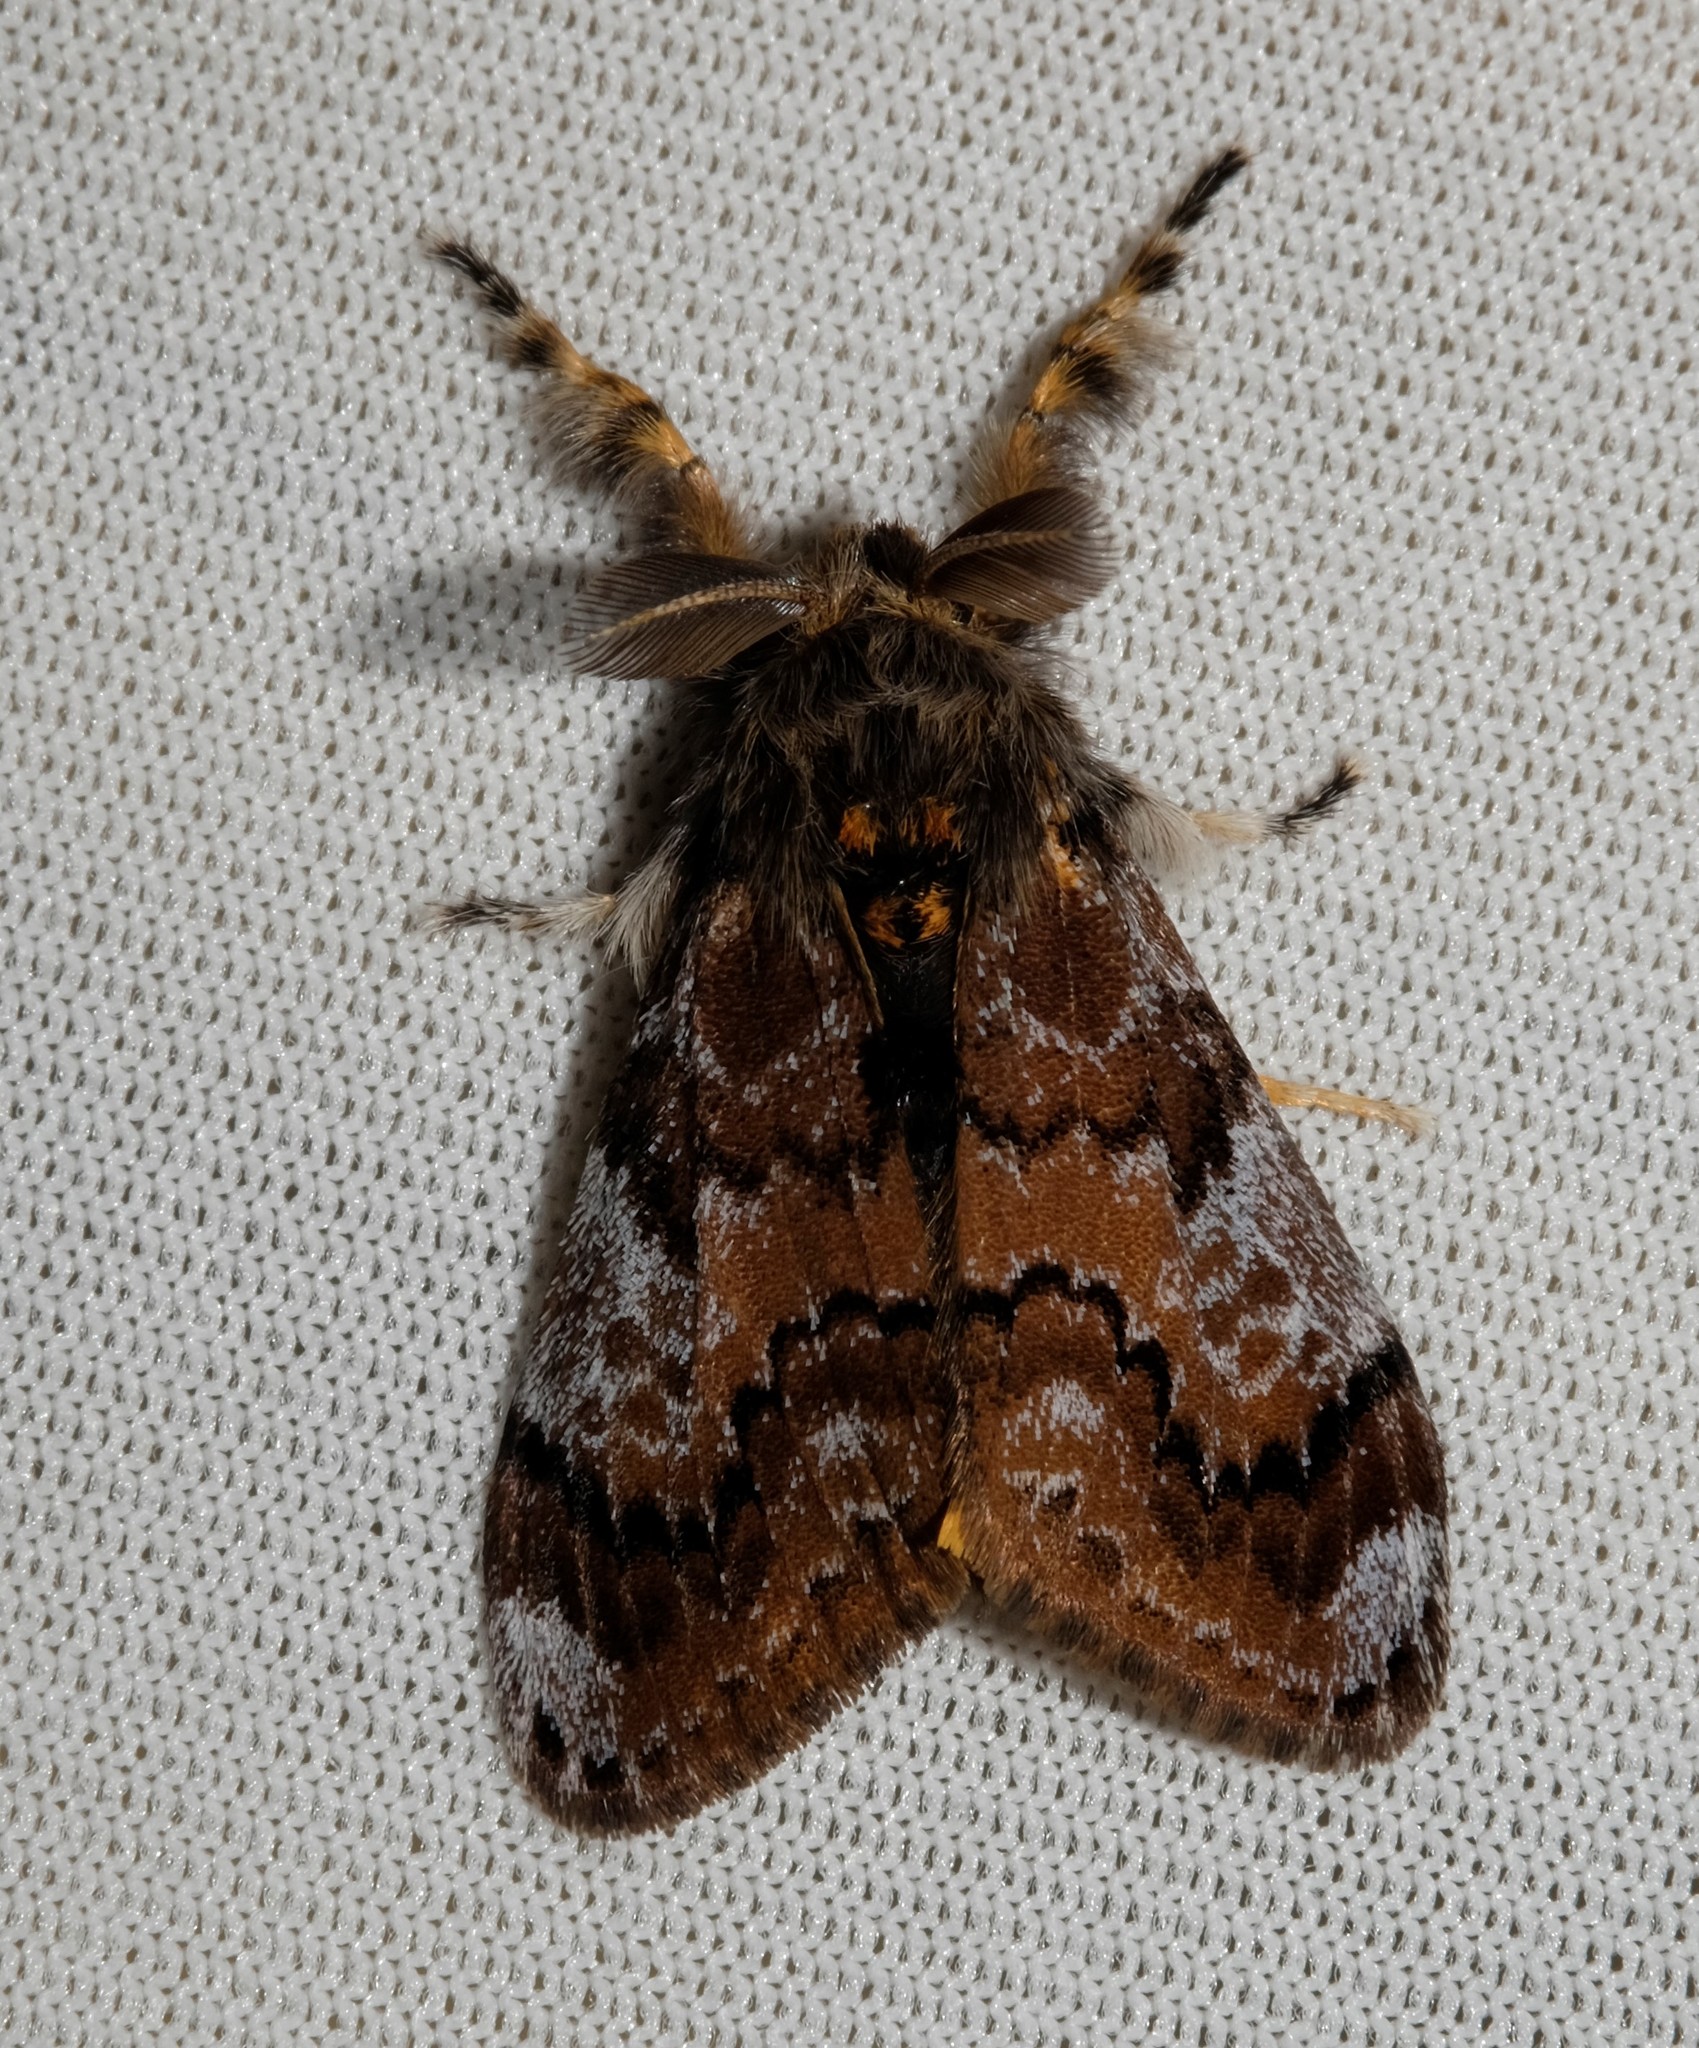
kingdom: Animalia
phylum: Arthropoda
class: Insecta
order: Lepidoptera
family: Erebidae
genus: Orgyia
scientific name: Orgyia
